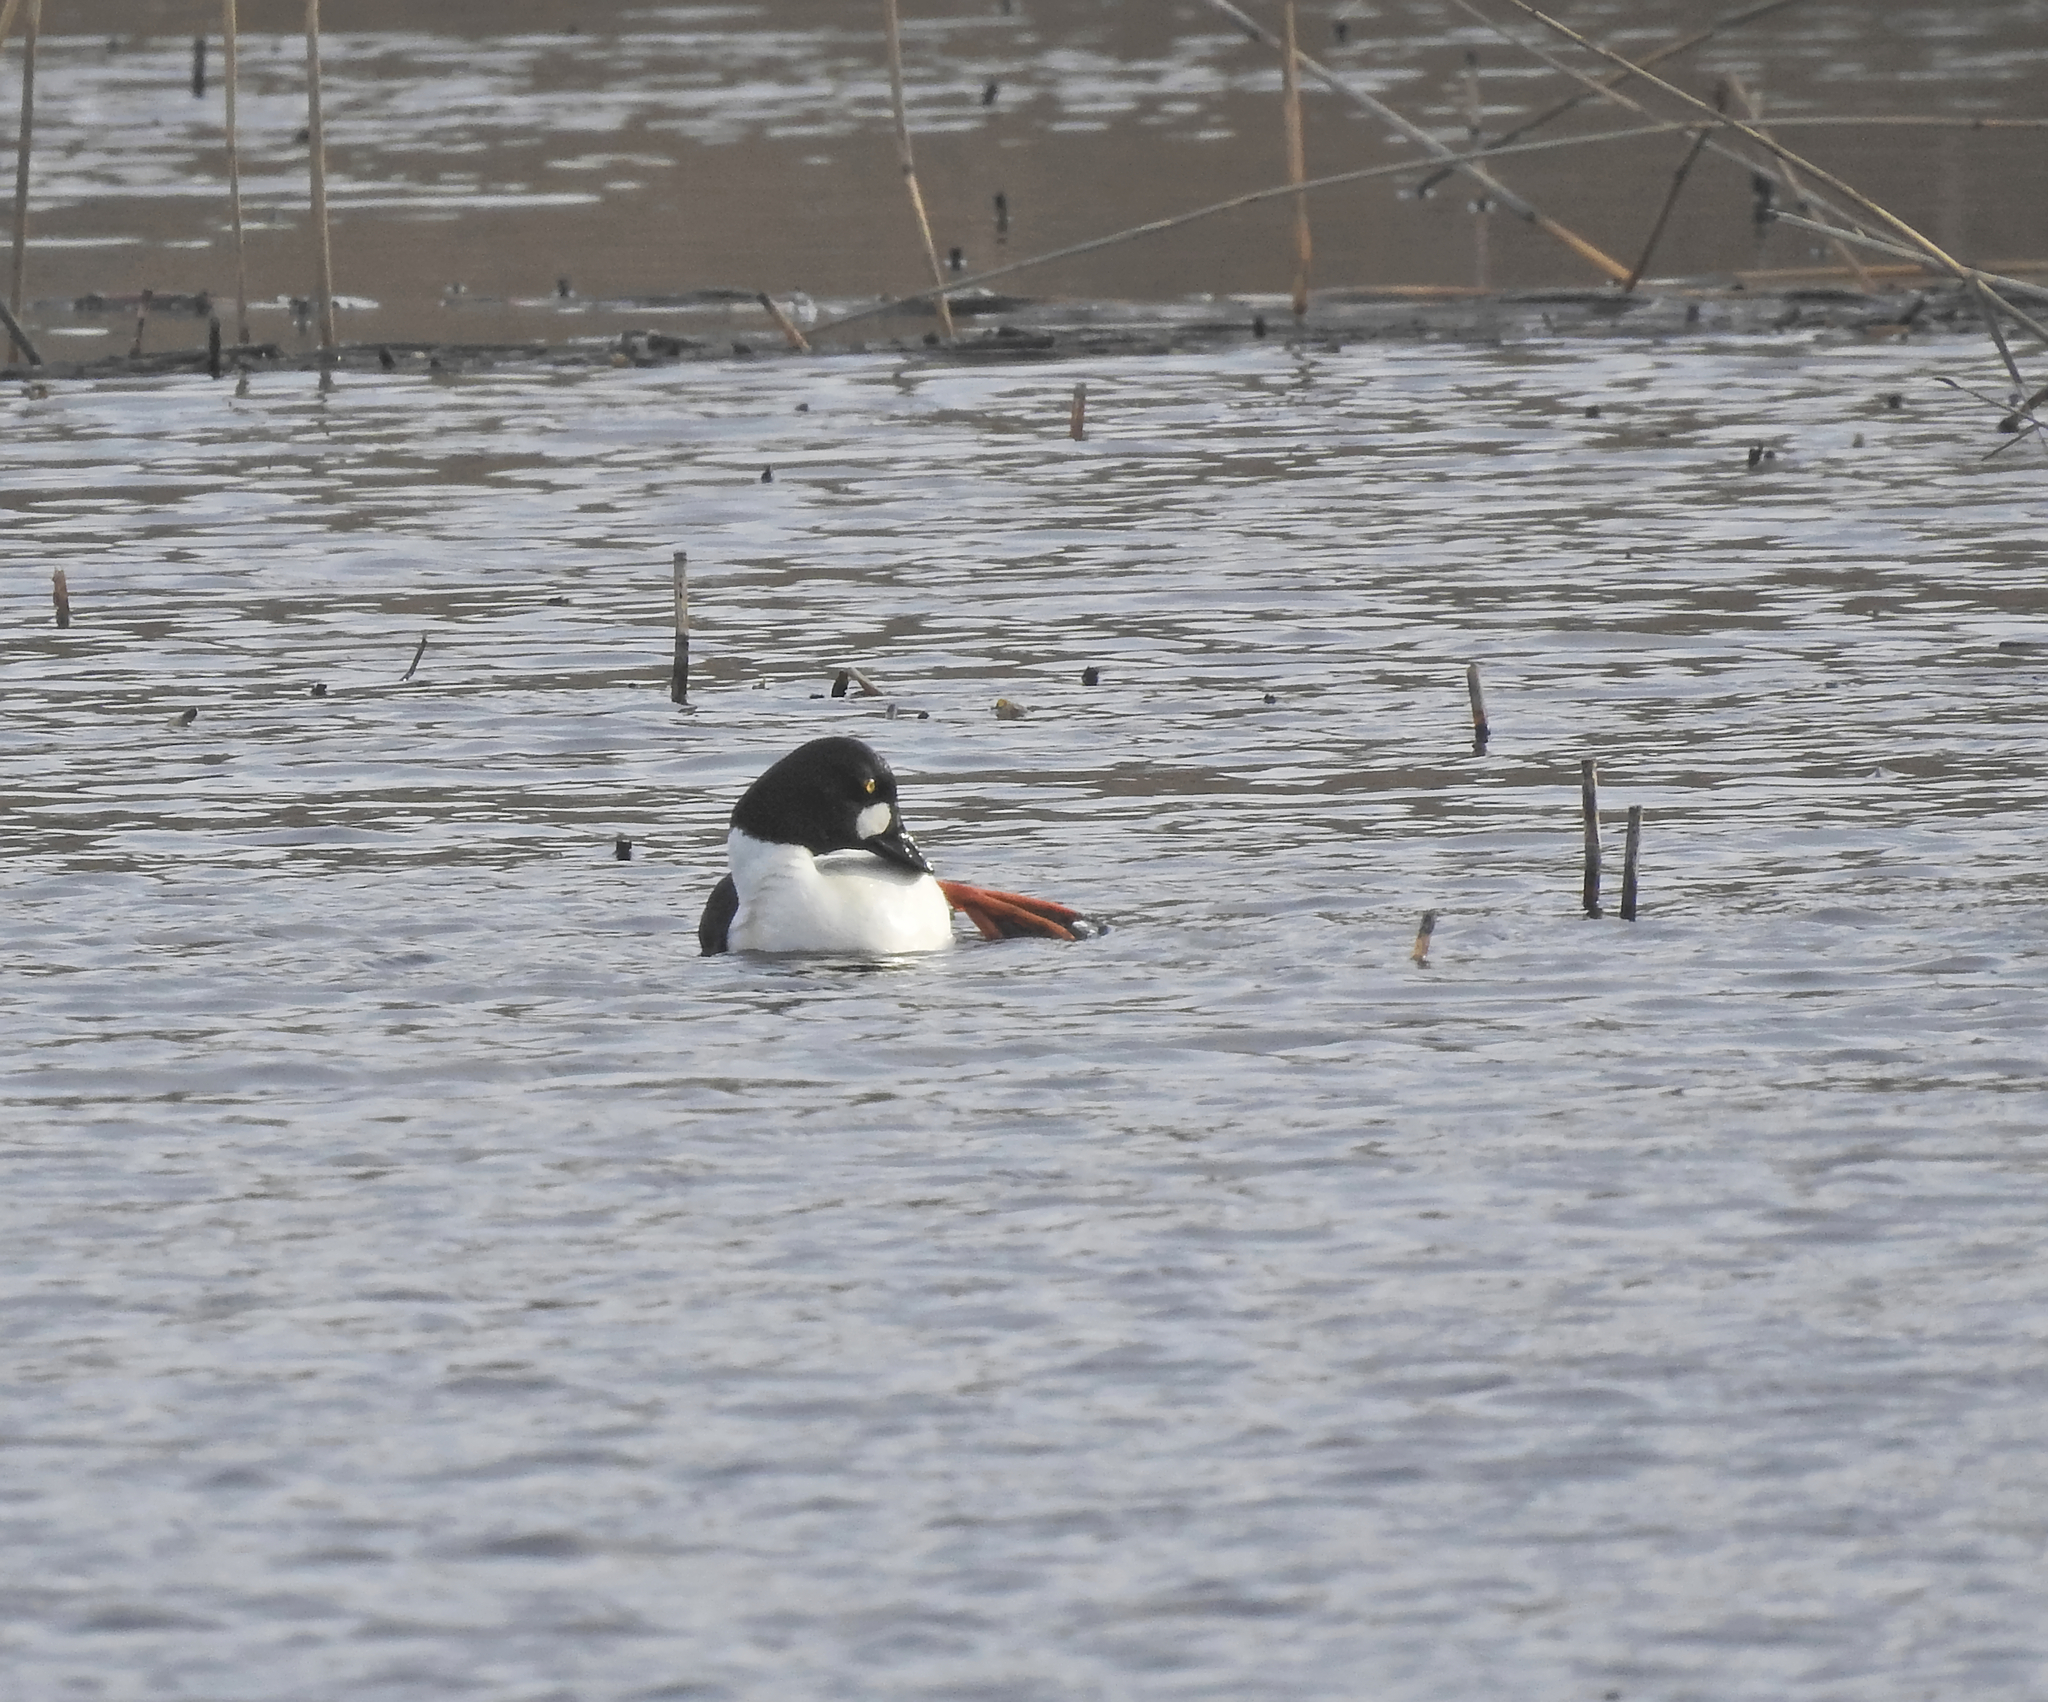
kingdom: Animalia
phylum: Chordata
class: Aves
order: Anseriformes
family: Anatidae
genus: Bucephala
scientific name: Bucephala clangula
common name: Common goldeneye
